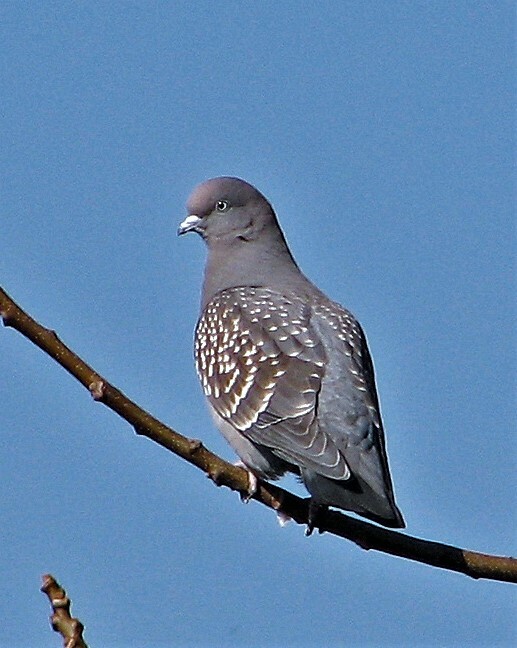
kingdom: Animalia
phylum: Chordata
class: Aves
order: Columbiformes
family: Columbidae
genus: Patagioenas
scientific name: Patagioenas maculosa
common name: Spot-winged pigeon
